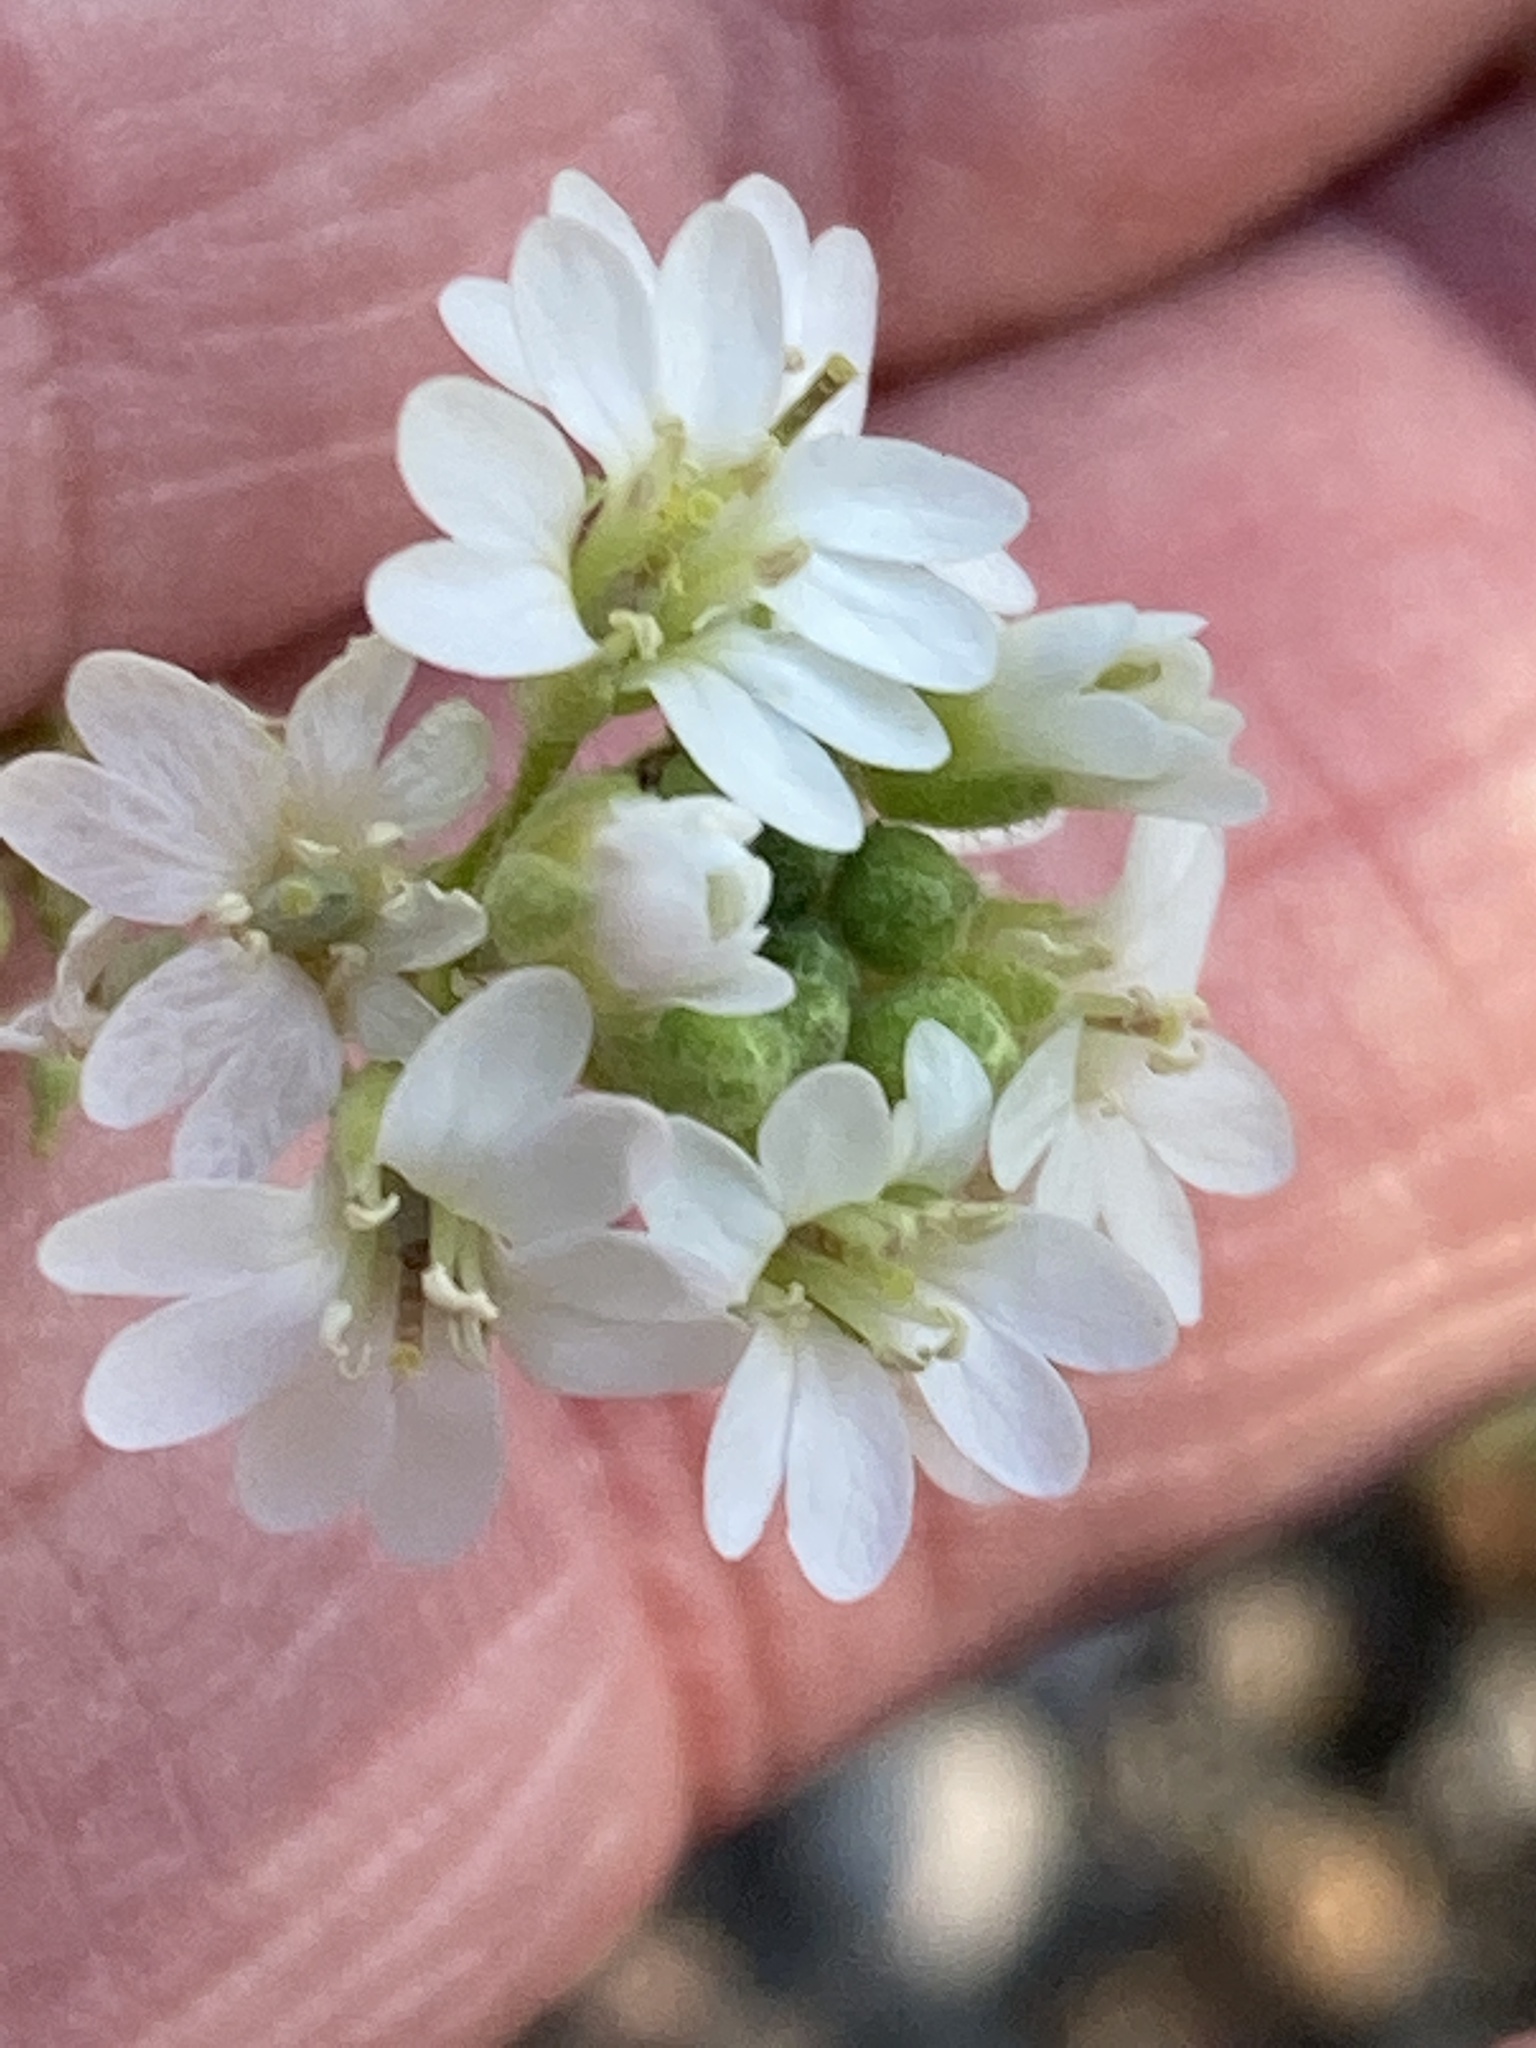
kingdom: Plantae
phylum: Tracheophyta
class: Magnoliopsida
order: Brassicales
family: Brassicaceae
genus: Berteroa
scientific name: Berteroa incana
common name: Hoary alison
